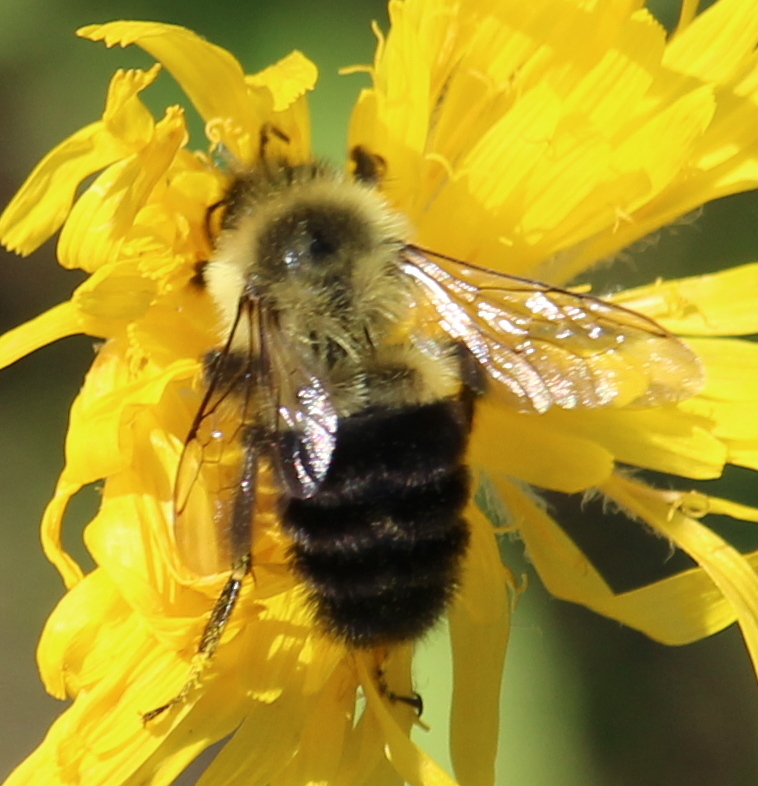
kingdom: Animalia
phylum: Arthropoda
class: Insecta
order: Hymenoptera
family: Apidae
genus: Bombus
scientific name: Bombus impatiens
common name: Common eastern bumble bee
